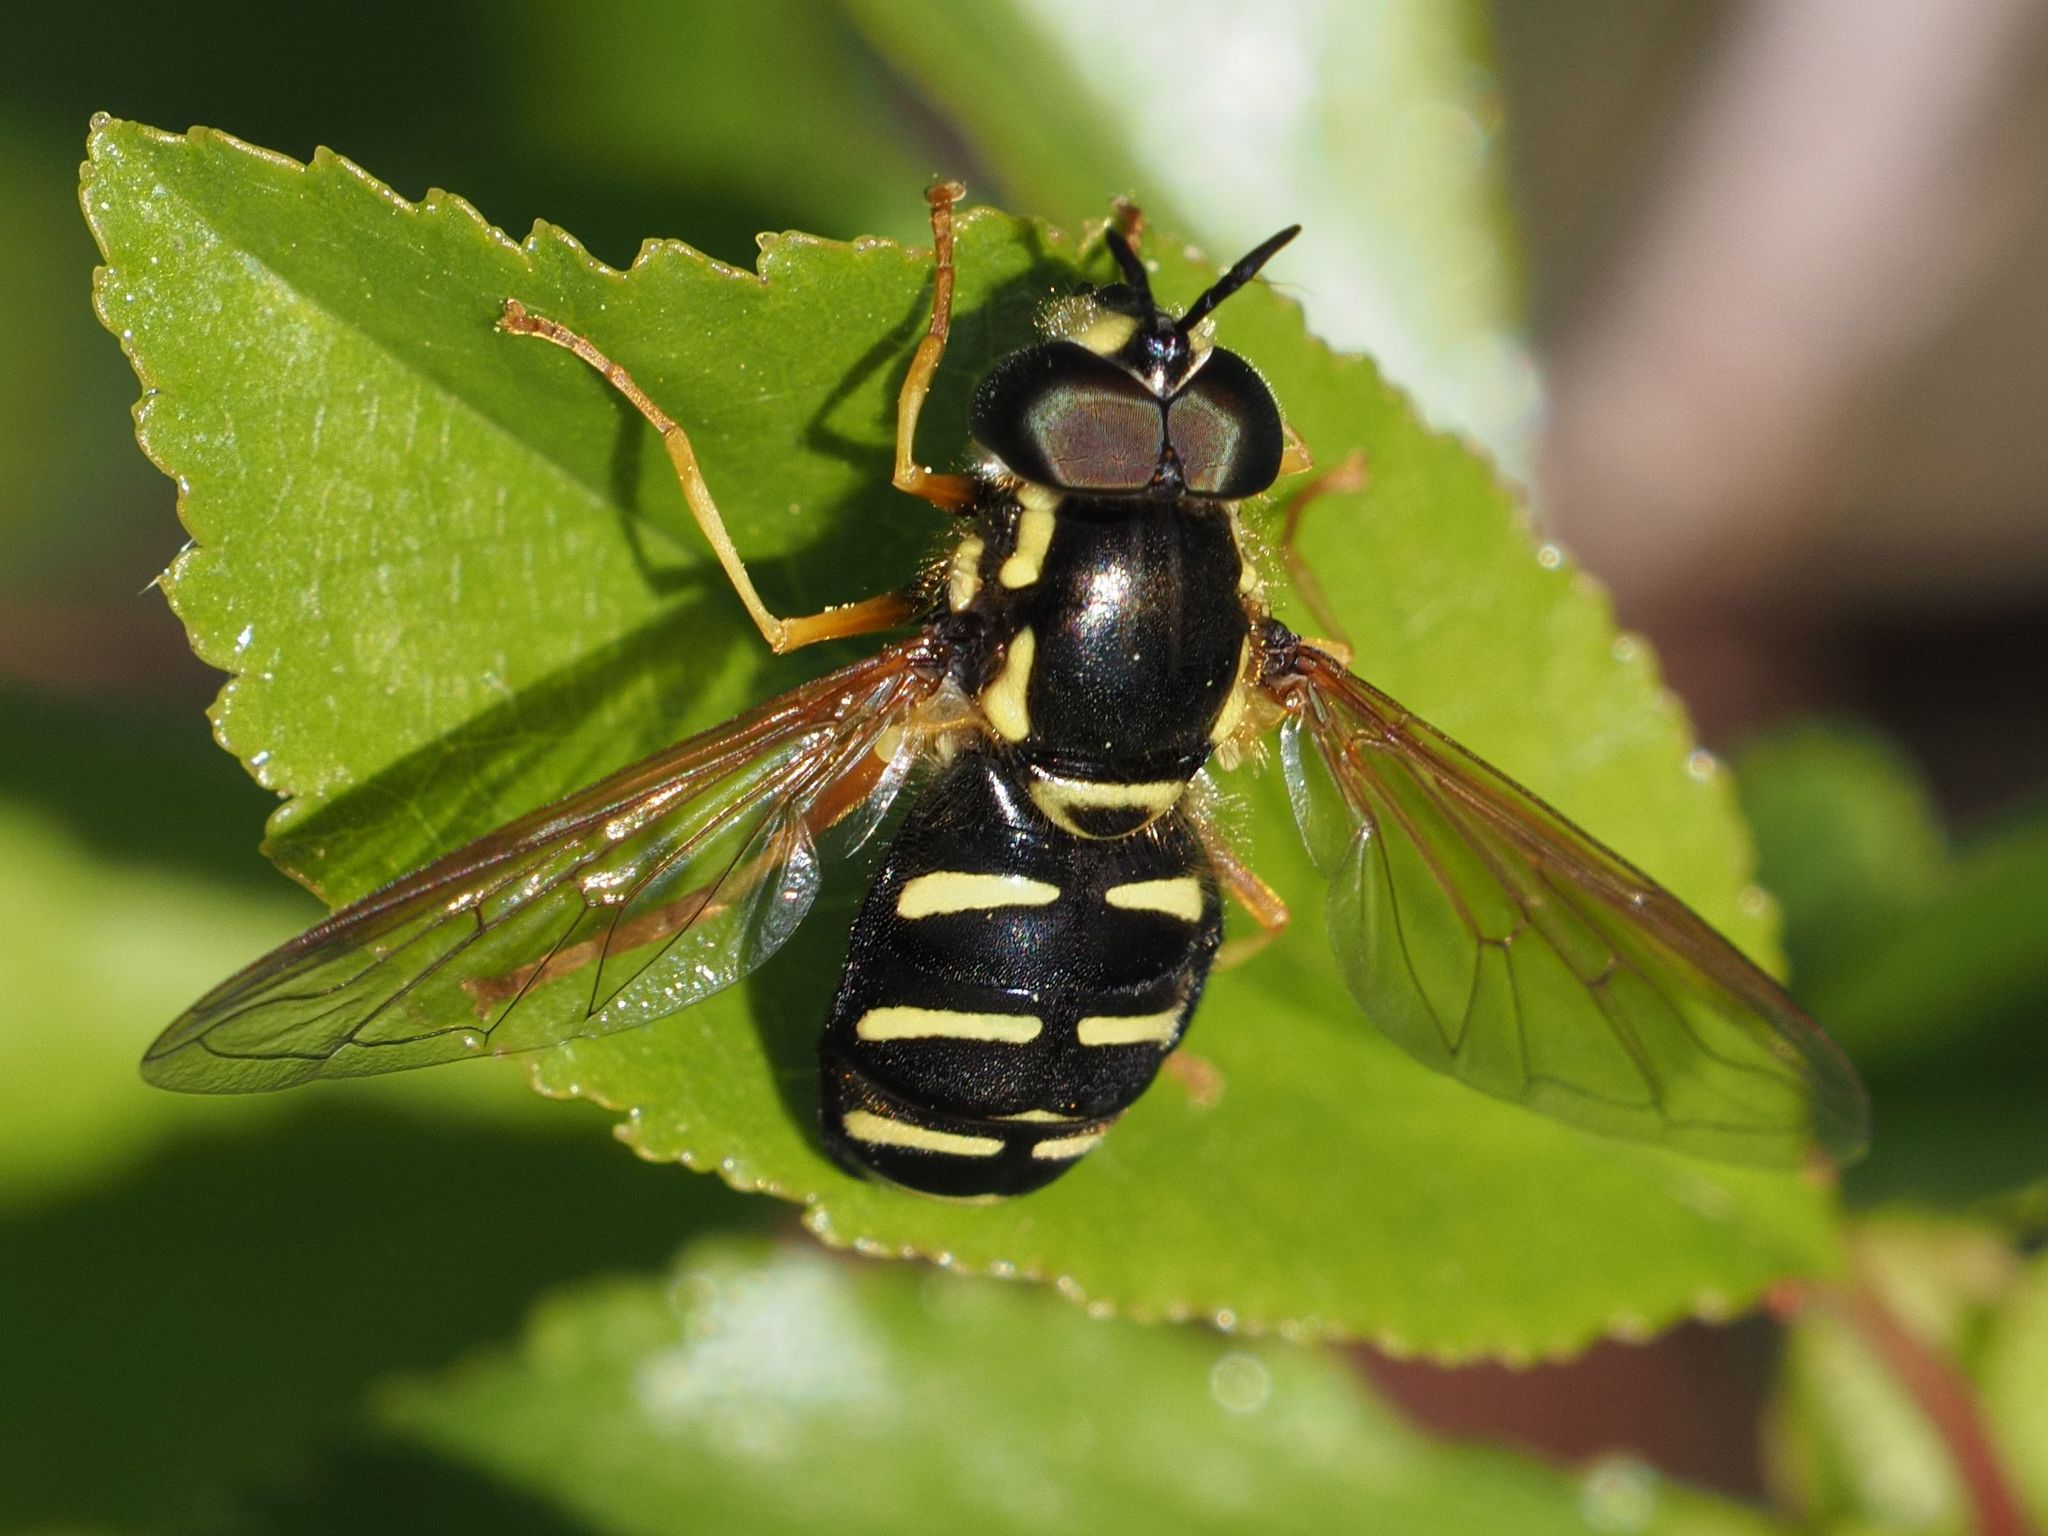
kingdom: Animalia
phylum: Arthropoda
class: Insecta
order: Diptera
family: Syrphidae
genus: Chrysotoxum
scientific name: Chrysotoxum festivum
